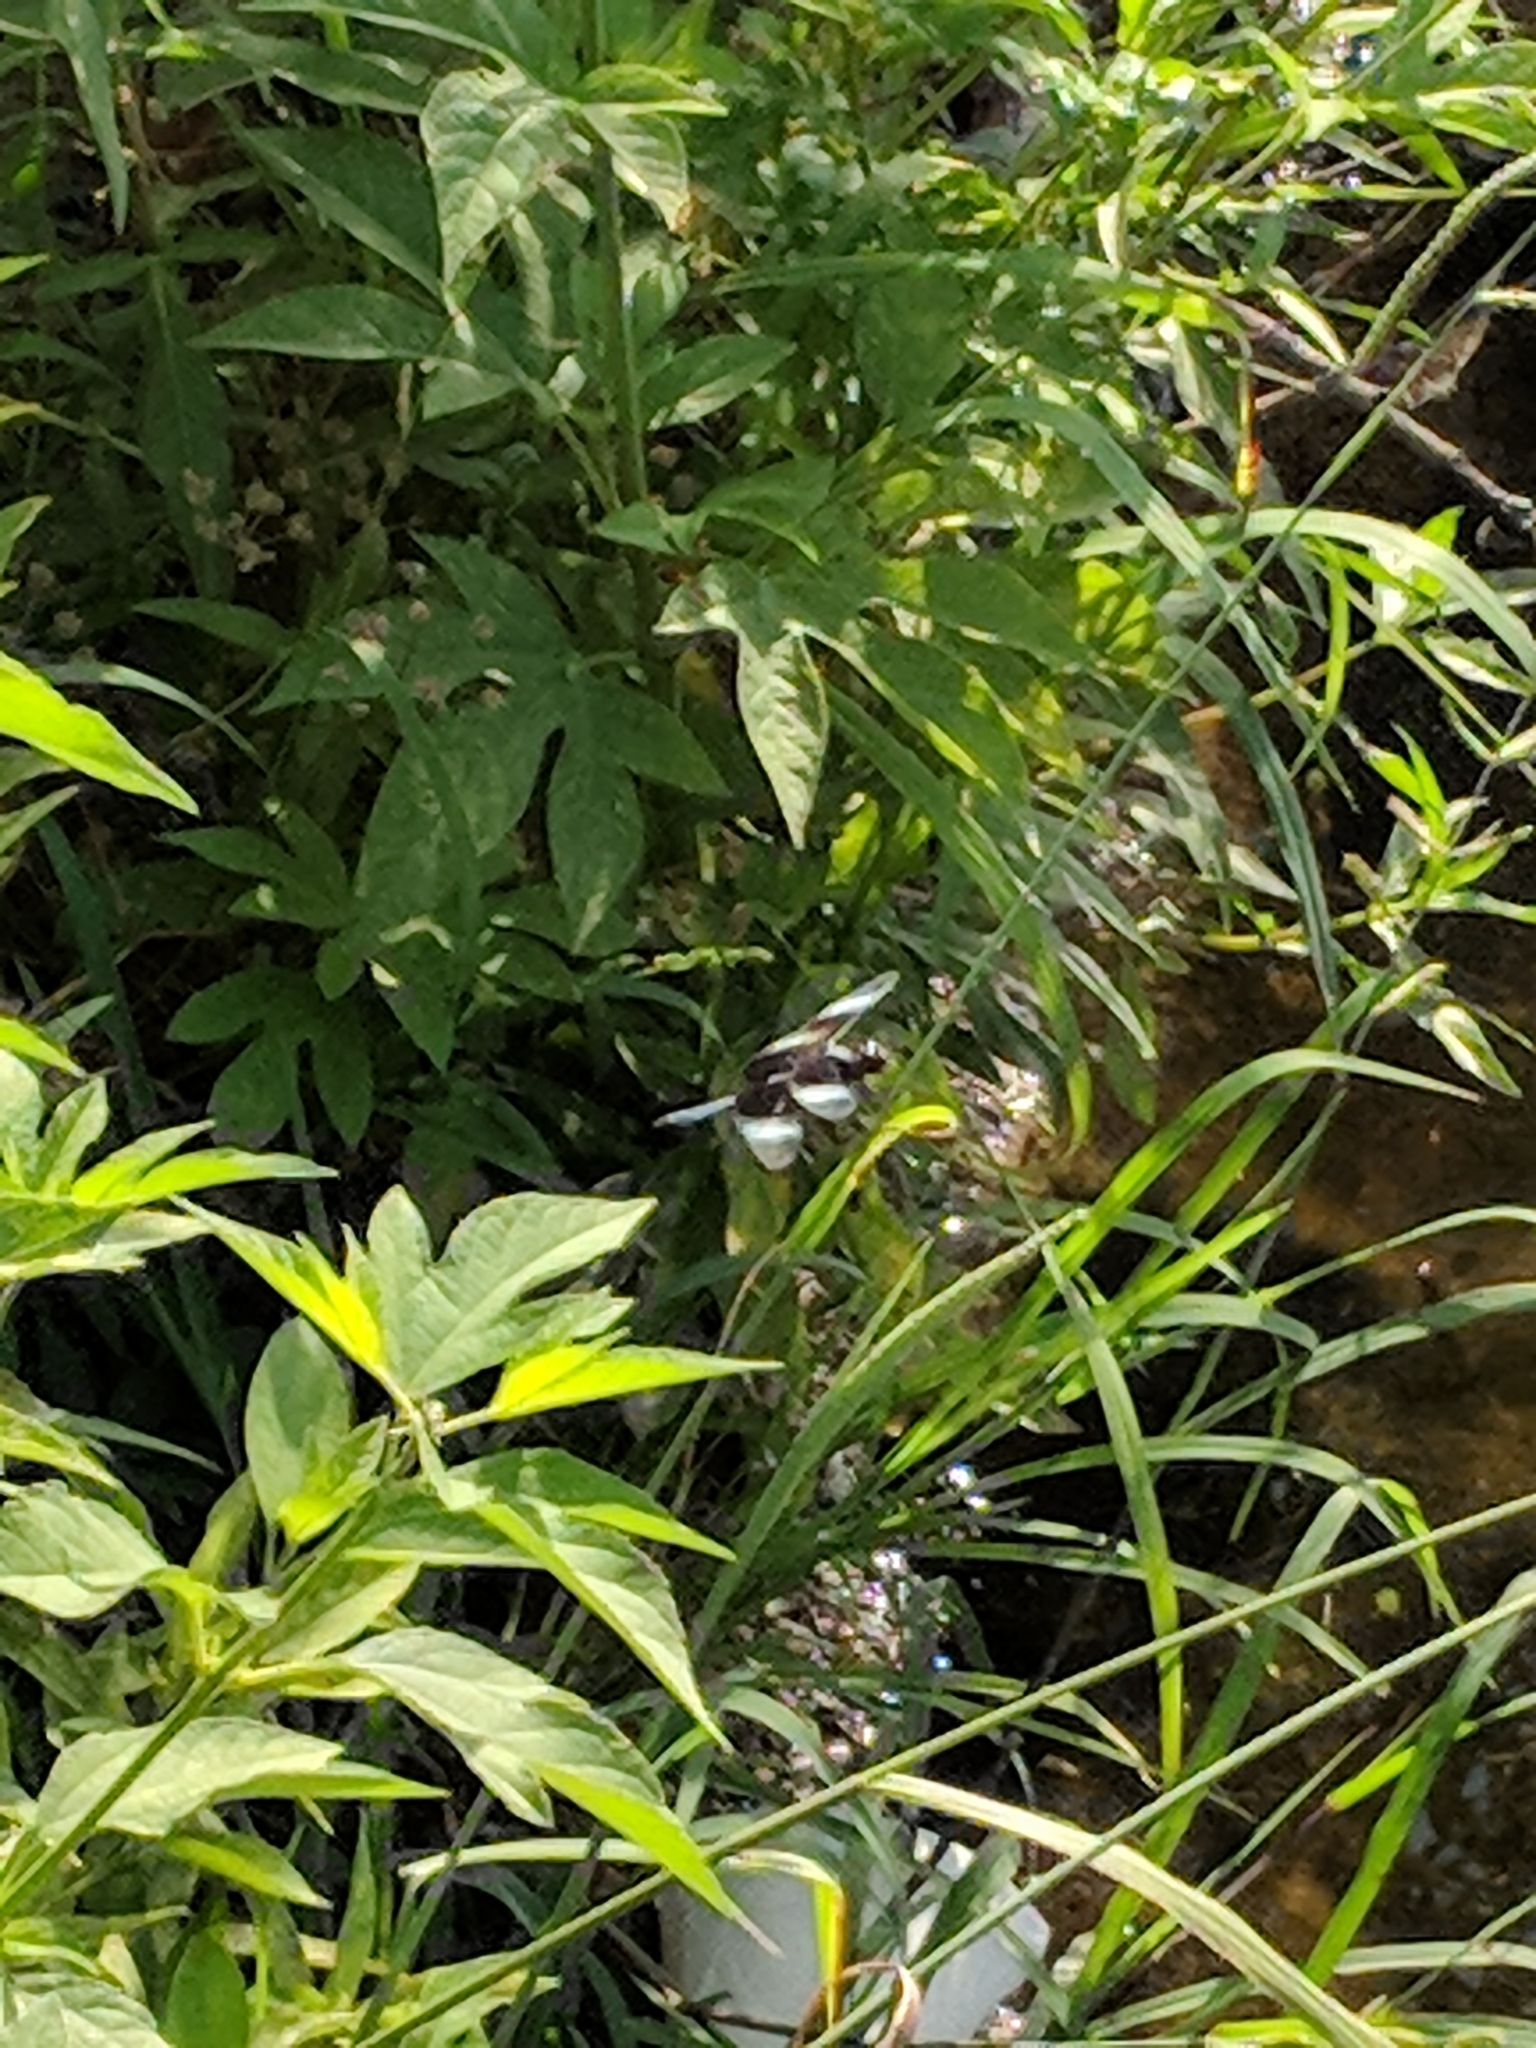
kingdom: Animalia
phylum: Arthropoda
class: Insecta
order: Odonata
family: Libellulidae
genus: Libellula
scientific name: Libellula luctuosa
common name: Widow skimmer
